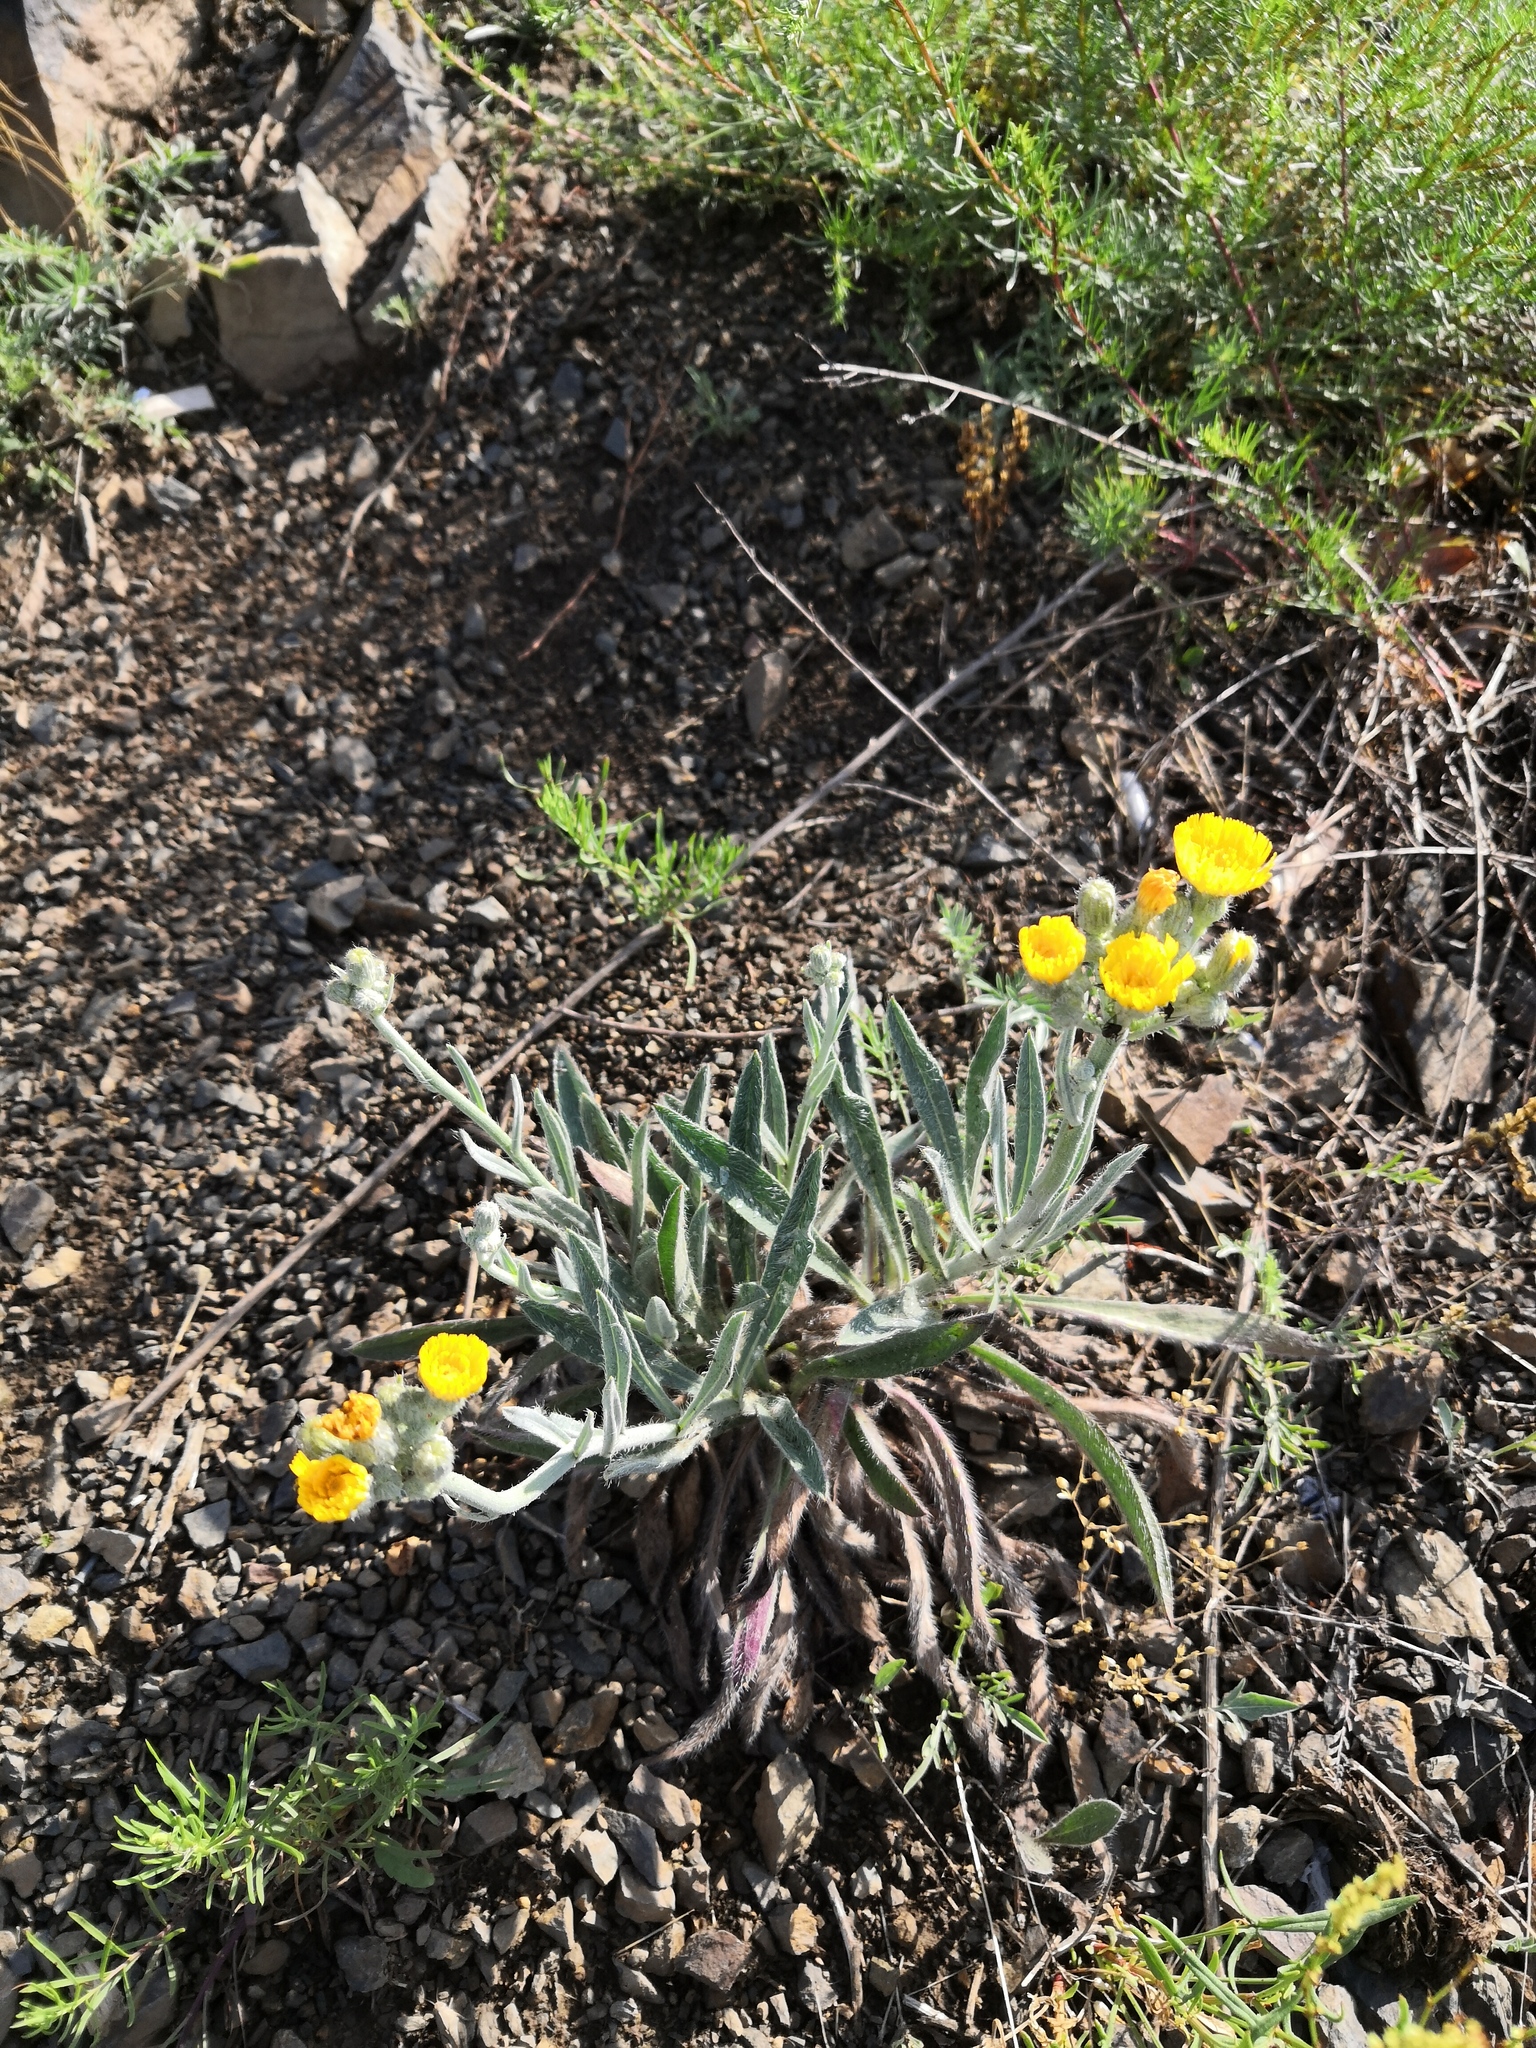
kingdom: Plantae
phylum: Tracheophyta
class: Magnoliopsida
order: Asterales
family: Asteraceae
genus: Pilosella
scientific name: Pilosella echioides
